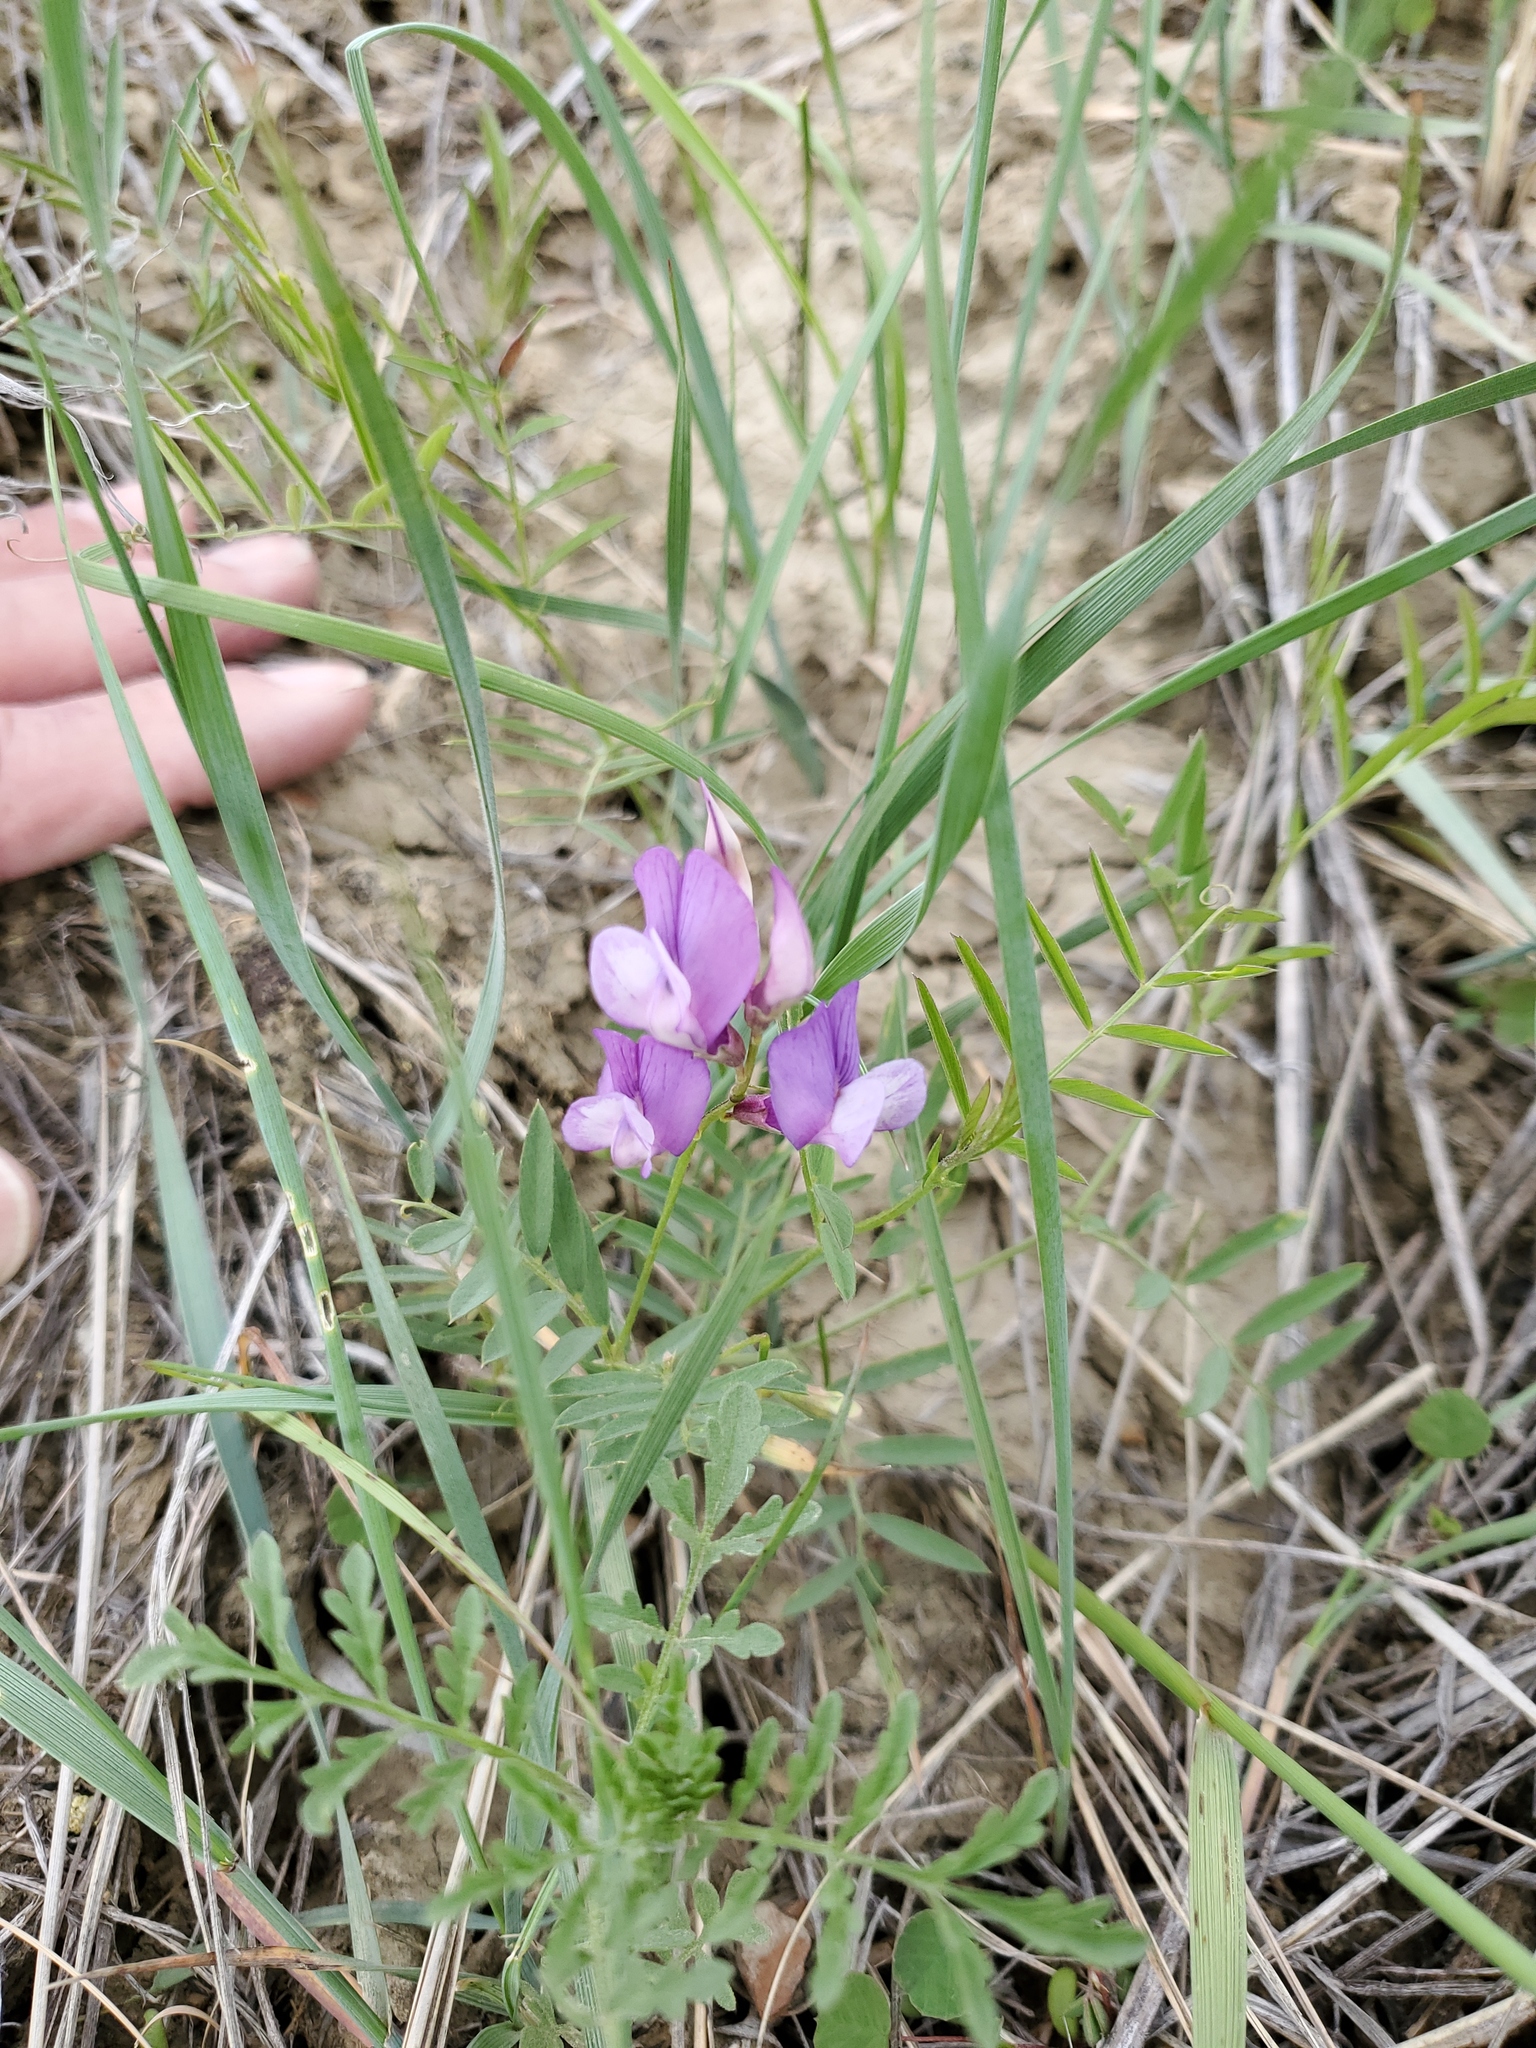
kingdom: Plantae
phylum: Tracheophyta
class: Magnoliopsida
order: Fabales
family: Fabaceae
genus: Vicia
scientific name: Vicia americana
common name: American vetch
